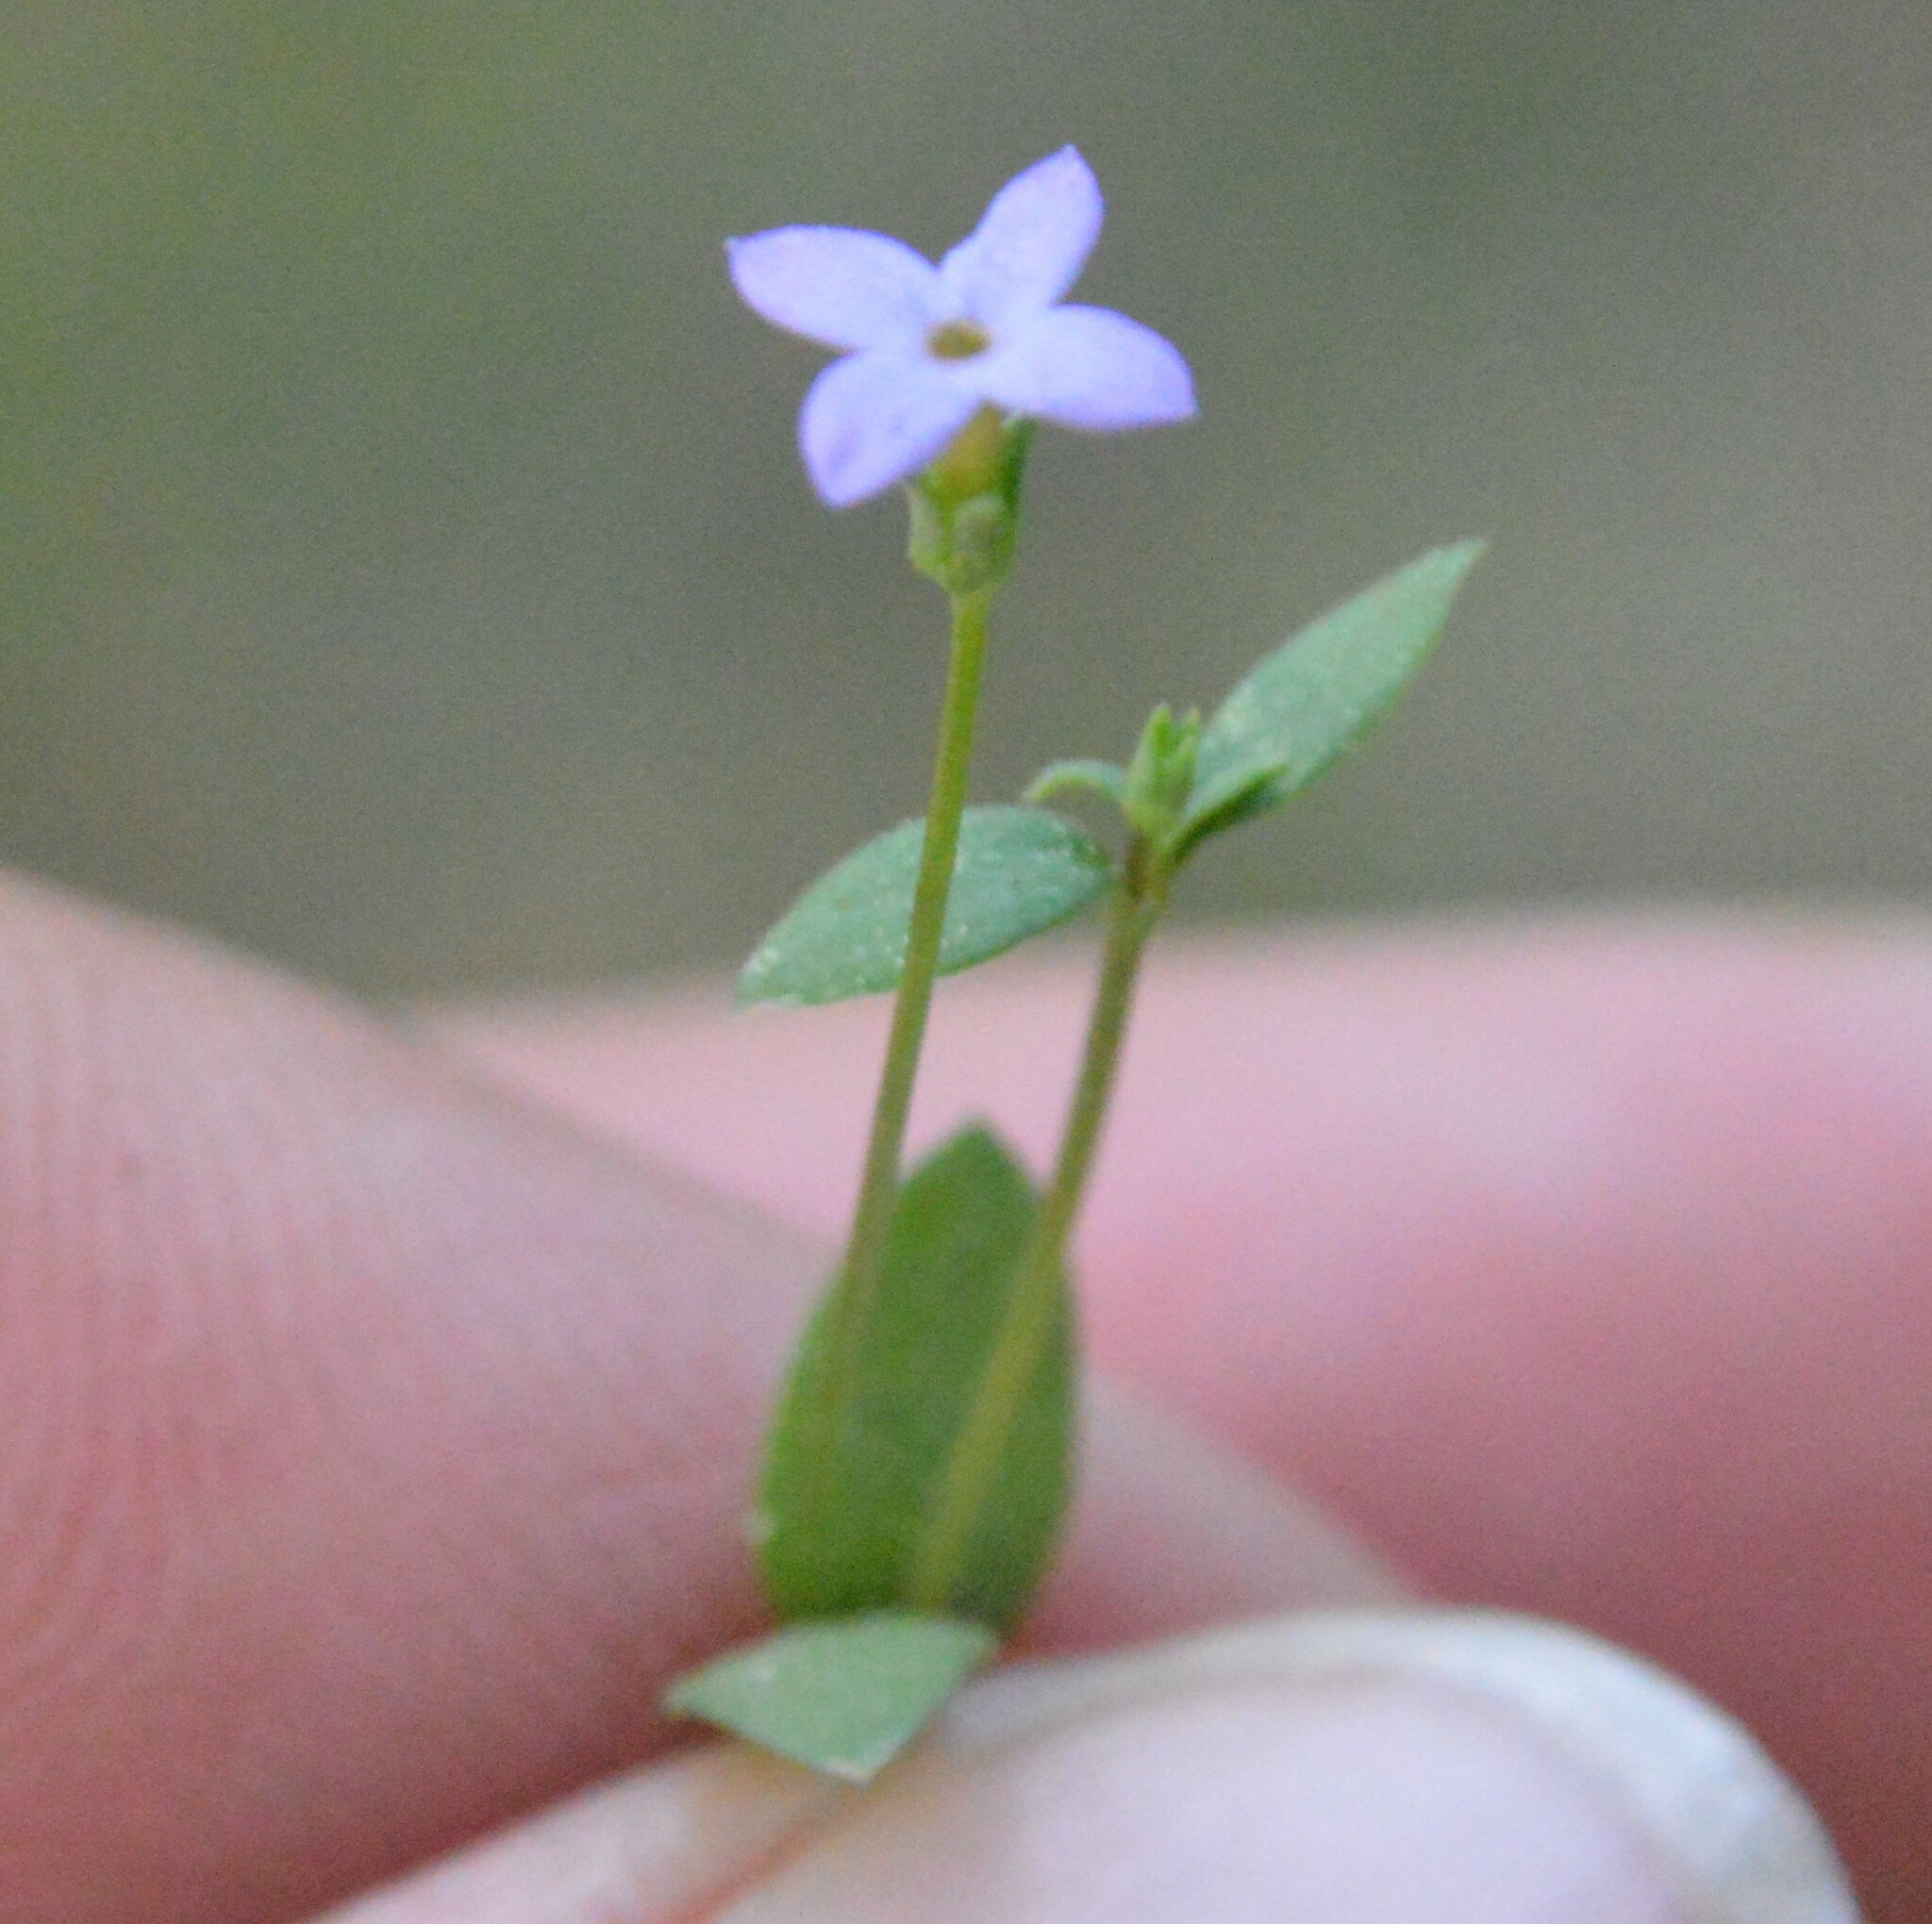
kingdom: Plantae
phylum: Tracheophyta
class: Magnoliopsida
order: Gentianales
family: Rubiaceae
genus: Houstonia
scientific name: Houstonia pusilla
